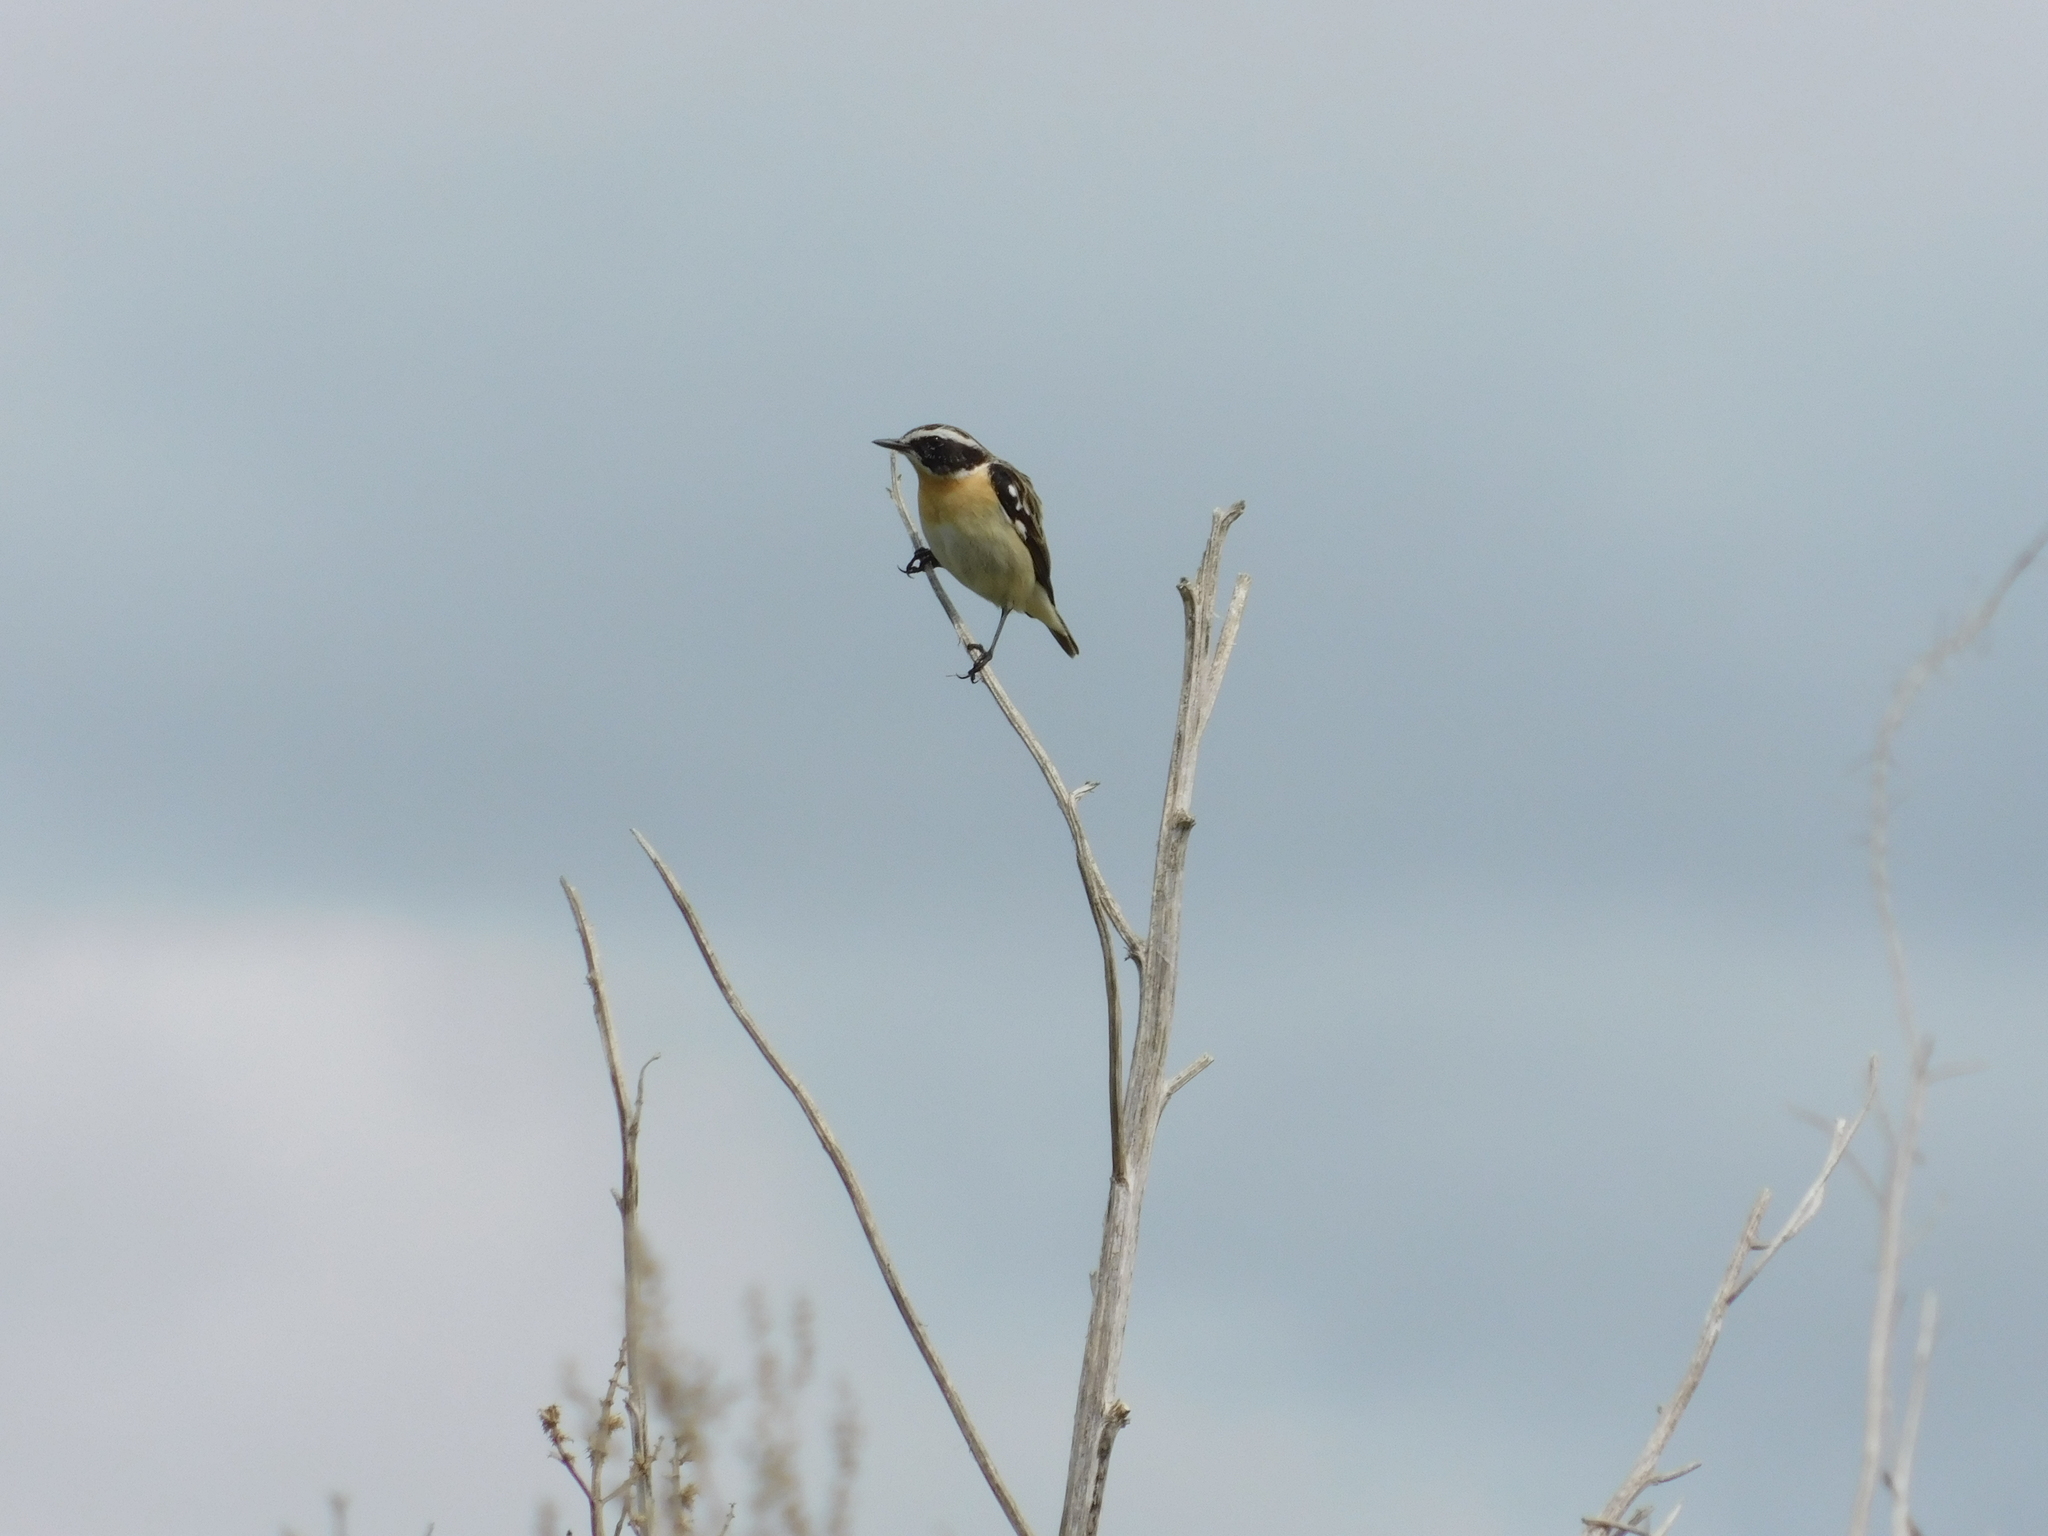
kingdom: Animalia
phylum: Chordata
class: Aves
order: Passeriformes
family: Muscicapidae
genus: Saxicola
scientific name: Saxicola rubetra
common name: Whinchat
